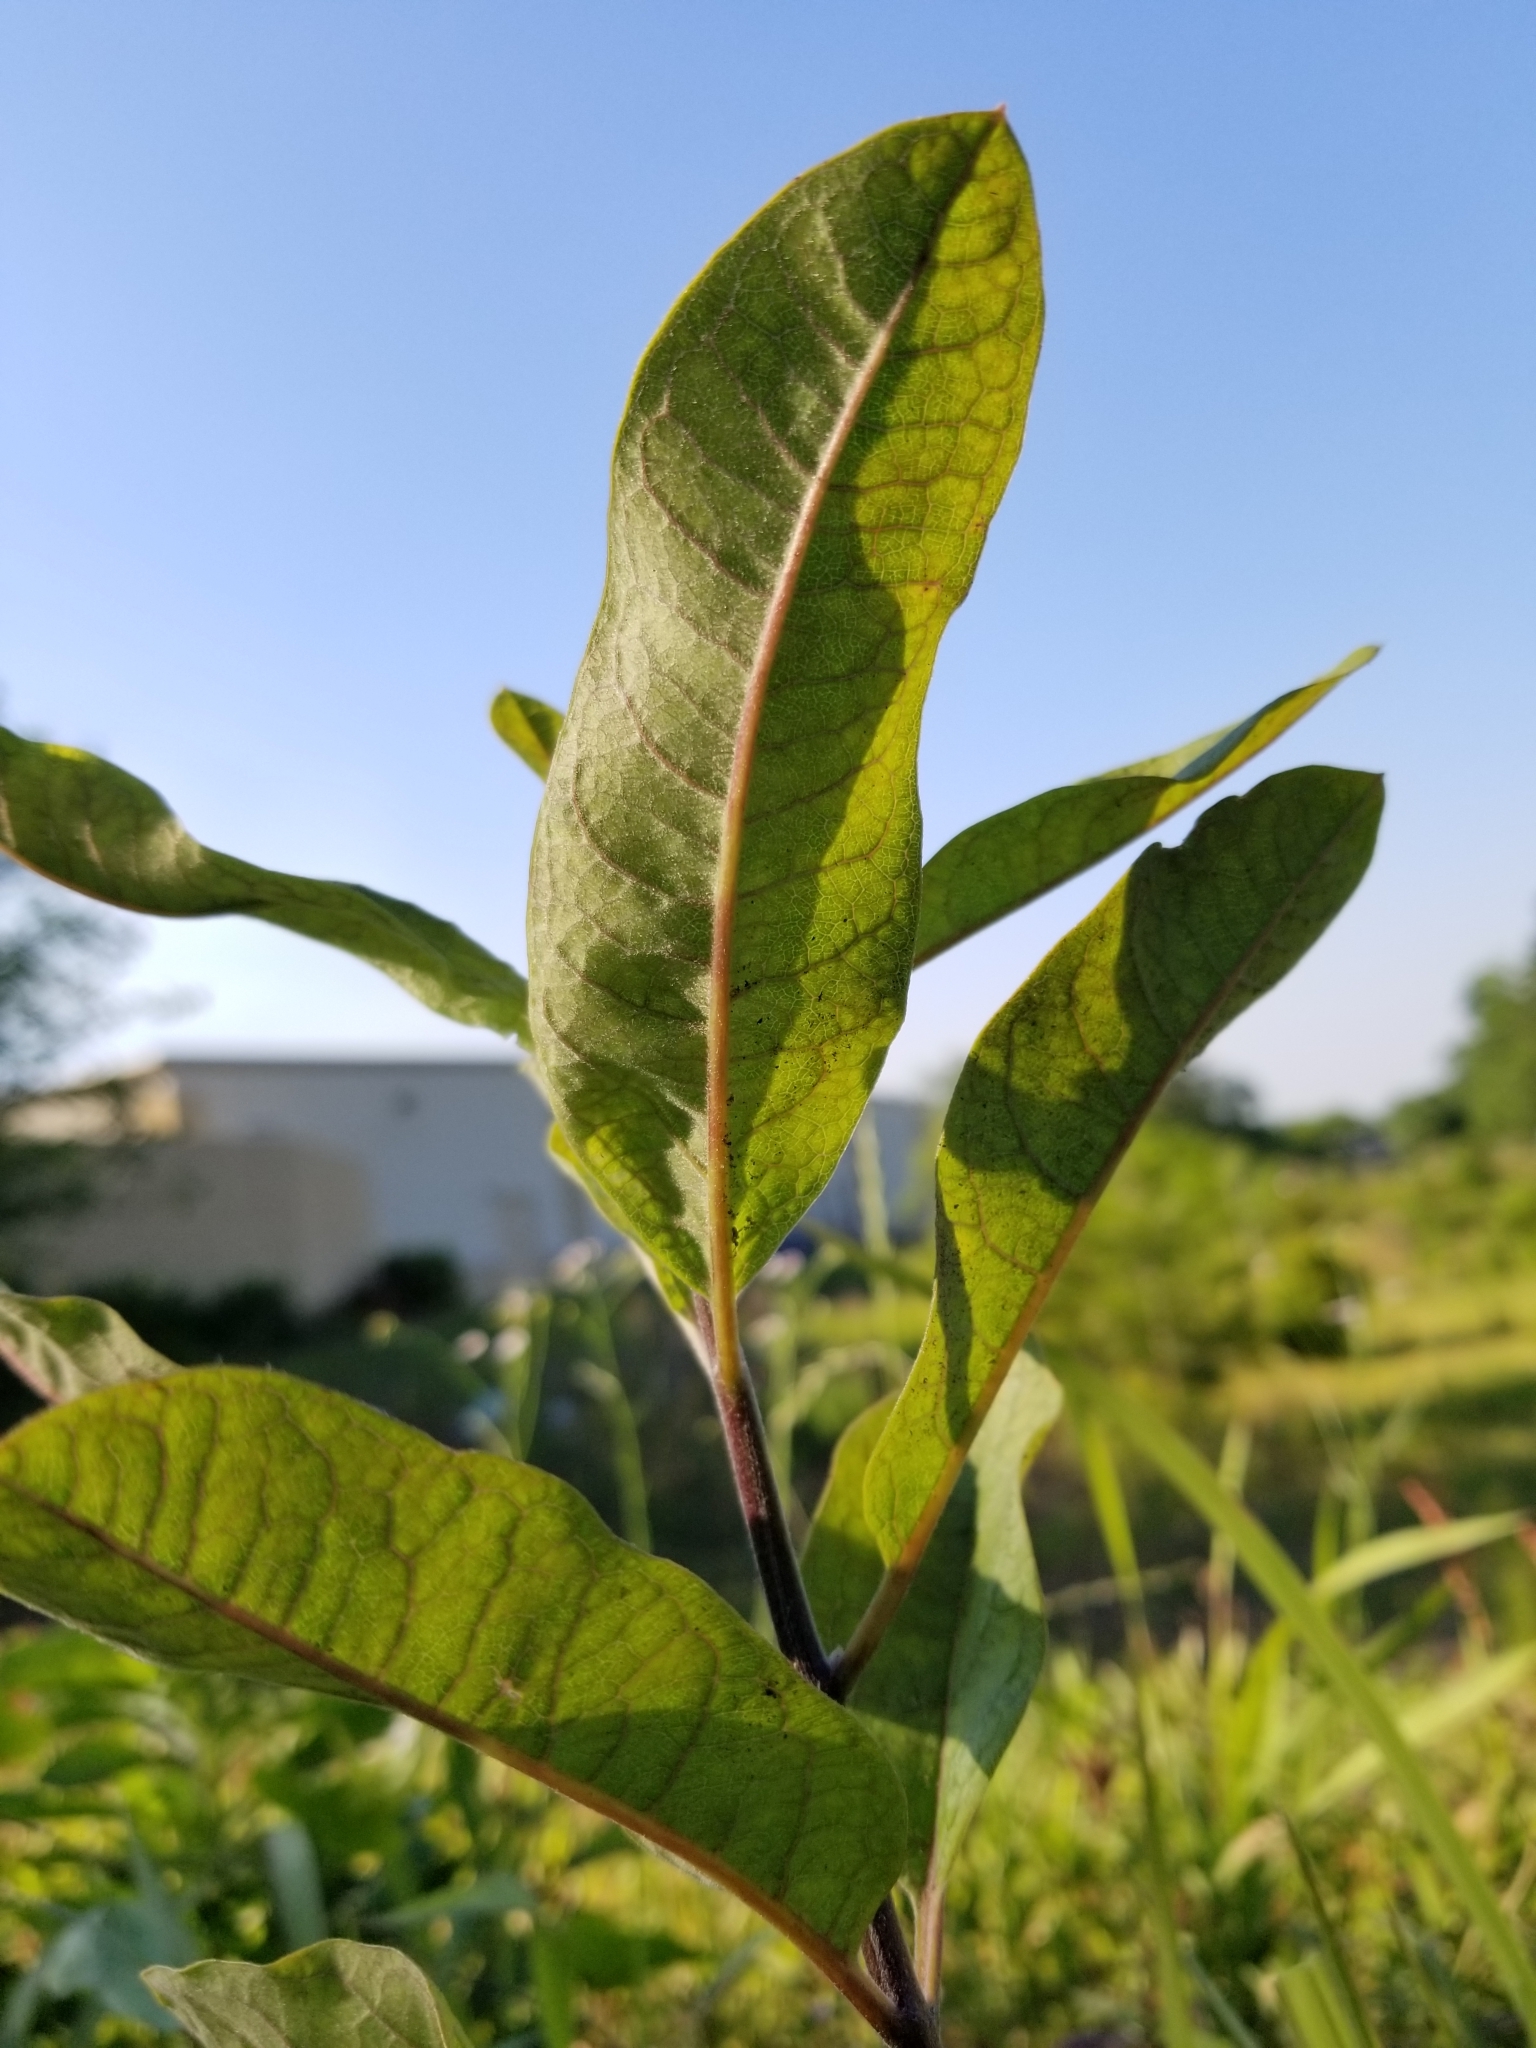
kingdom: Plantae
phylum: Tracheophyta
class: Magnoliopsida
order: Gentianales
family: Apocynaceae
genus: Asclepias
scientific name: Asclepias tomentosa
